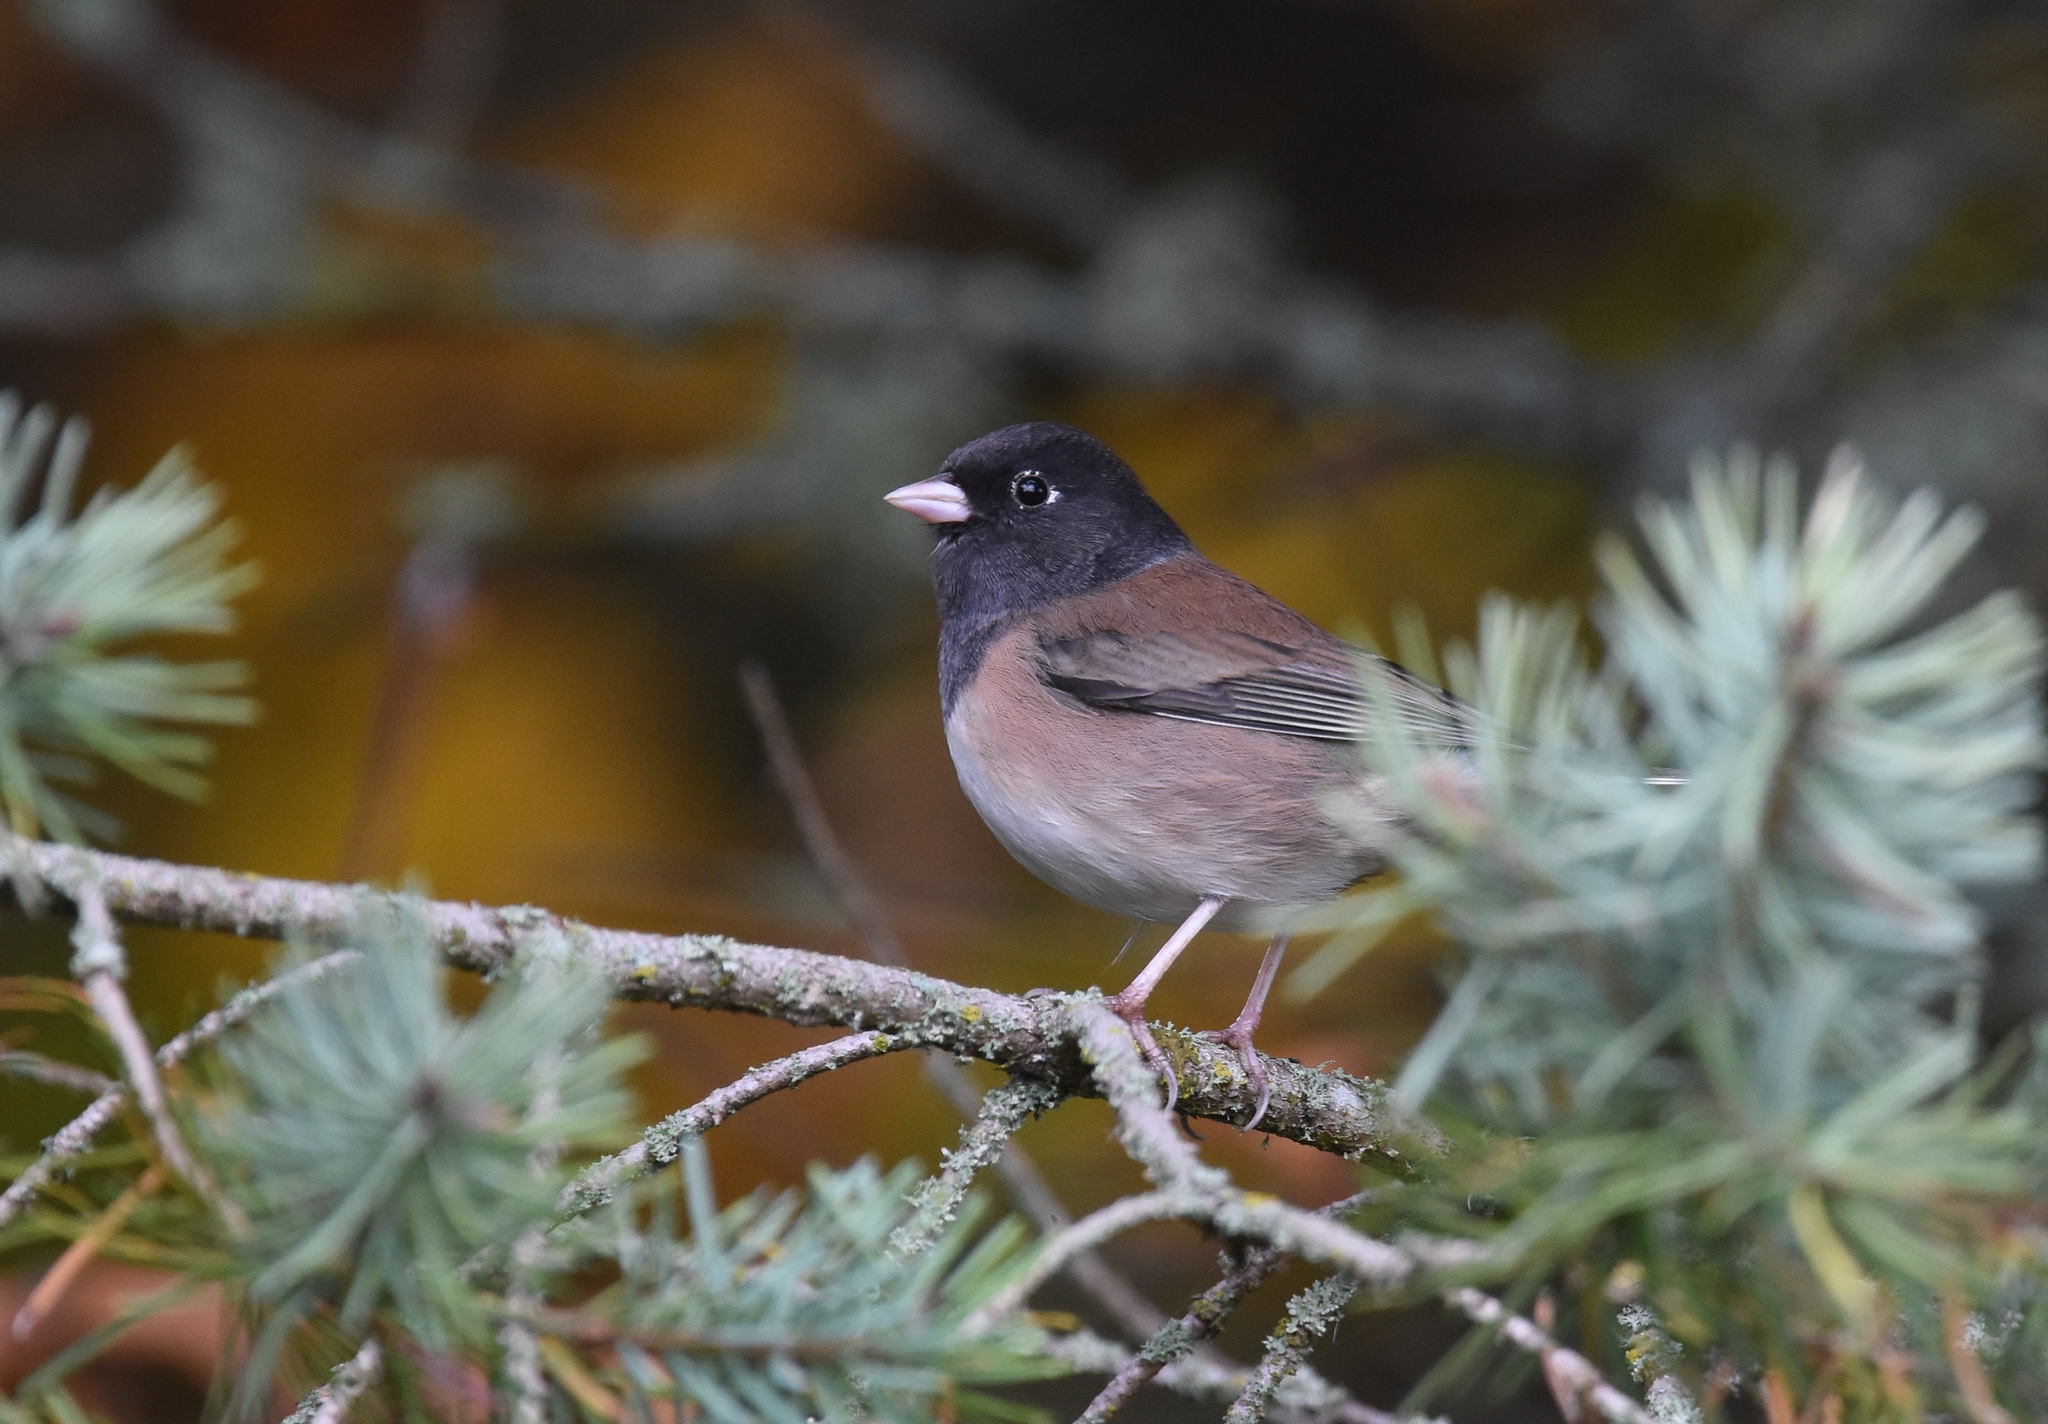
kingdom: Animalia
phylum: Chordata
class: Aves
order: Passeriformes
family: Passerellidae
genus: Junco
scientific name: Junco hyemalis
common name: Dark-eyed junco
